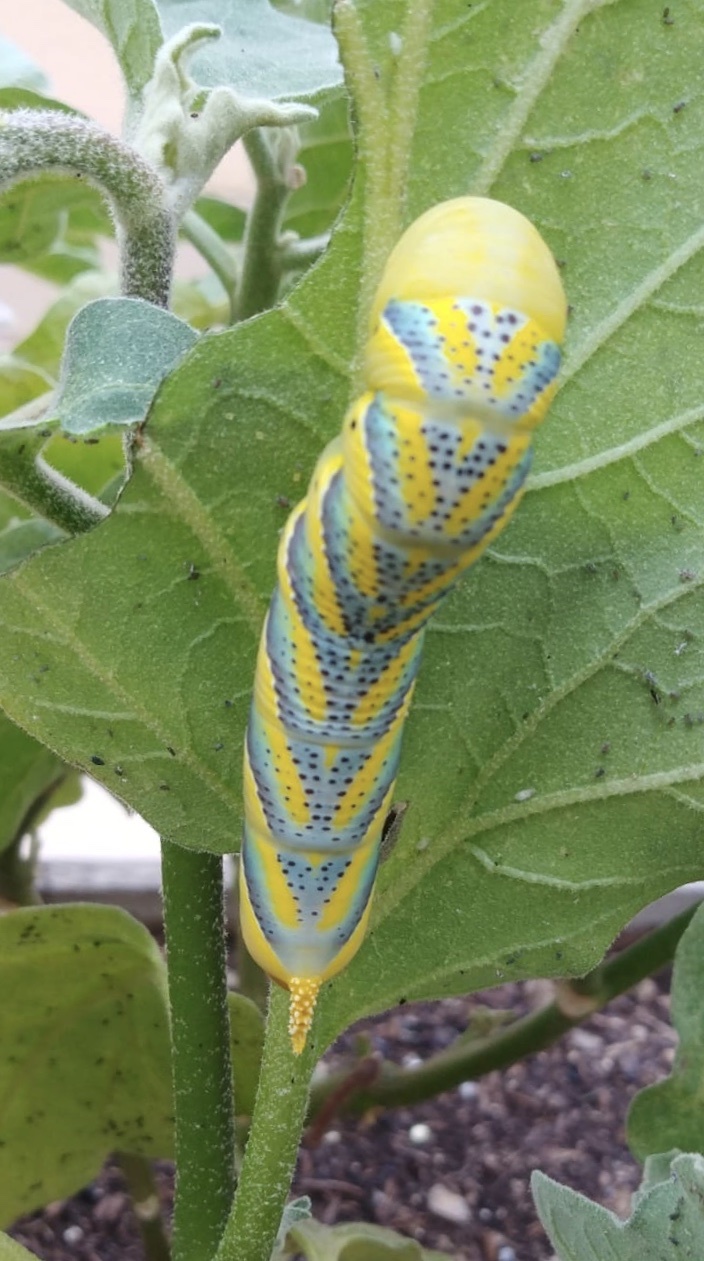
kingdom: Animalia
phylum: Arthropoda
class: Insecta
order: Lepidoptera
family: Sphingidae
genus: Acherontia
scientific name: Acherontia atropos
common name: Death's-head hawk moth
